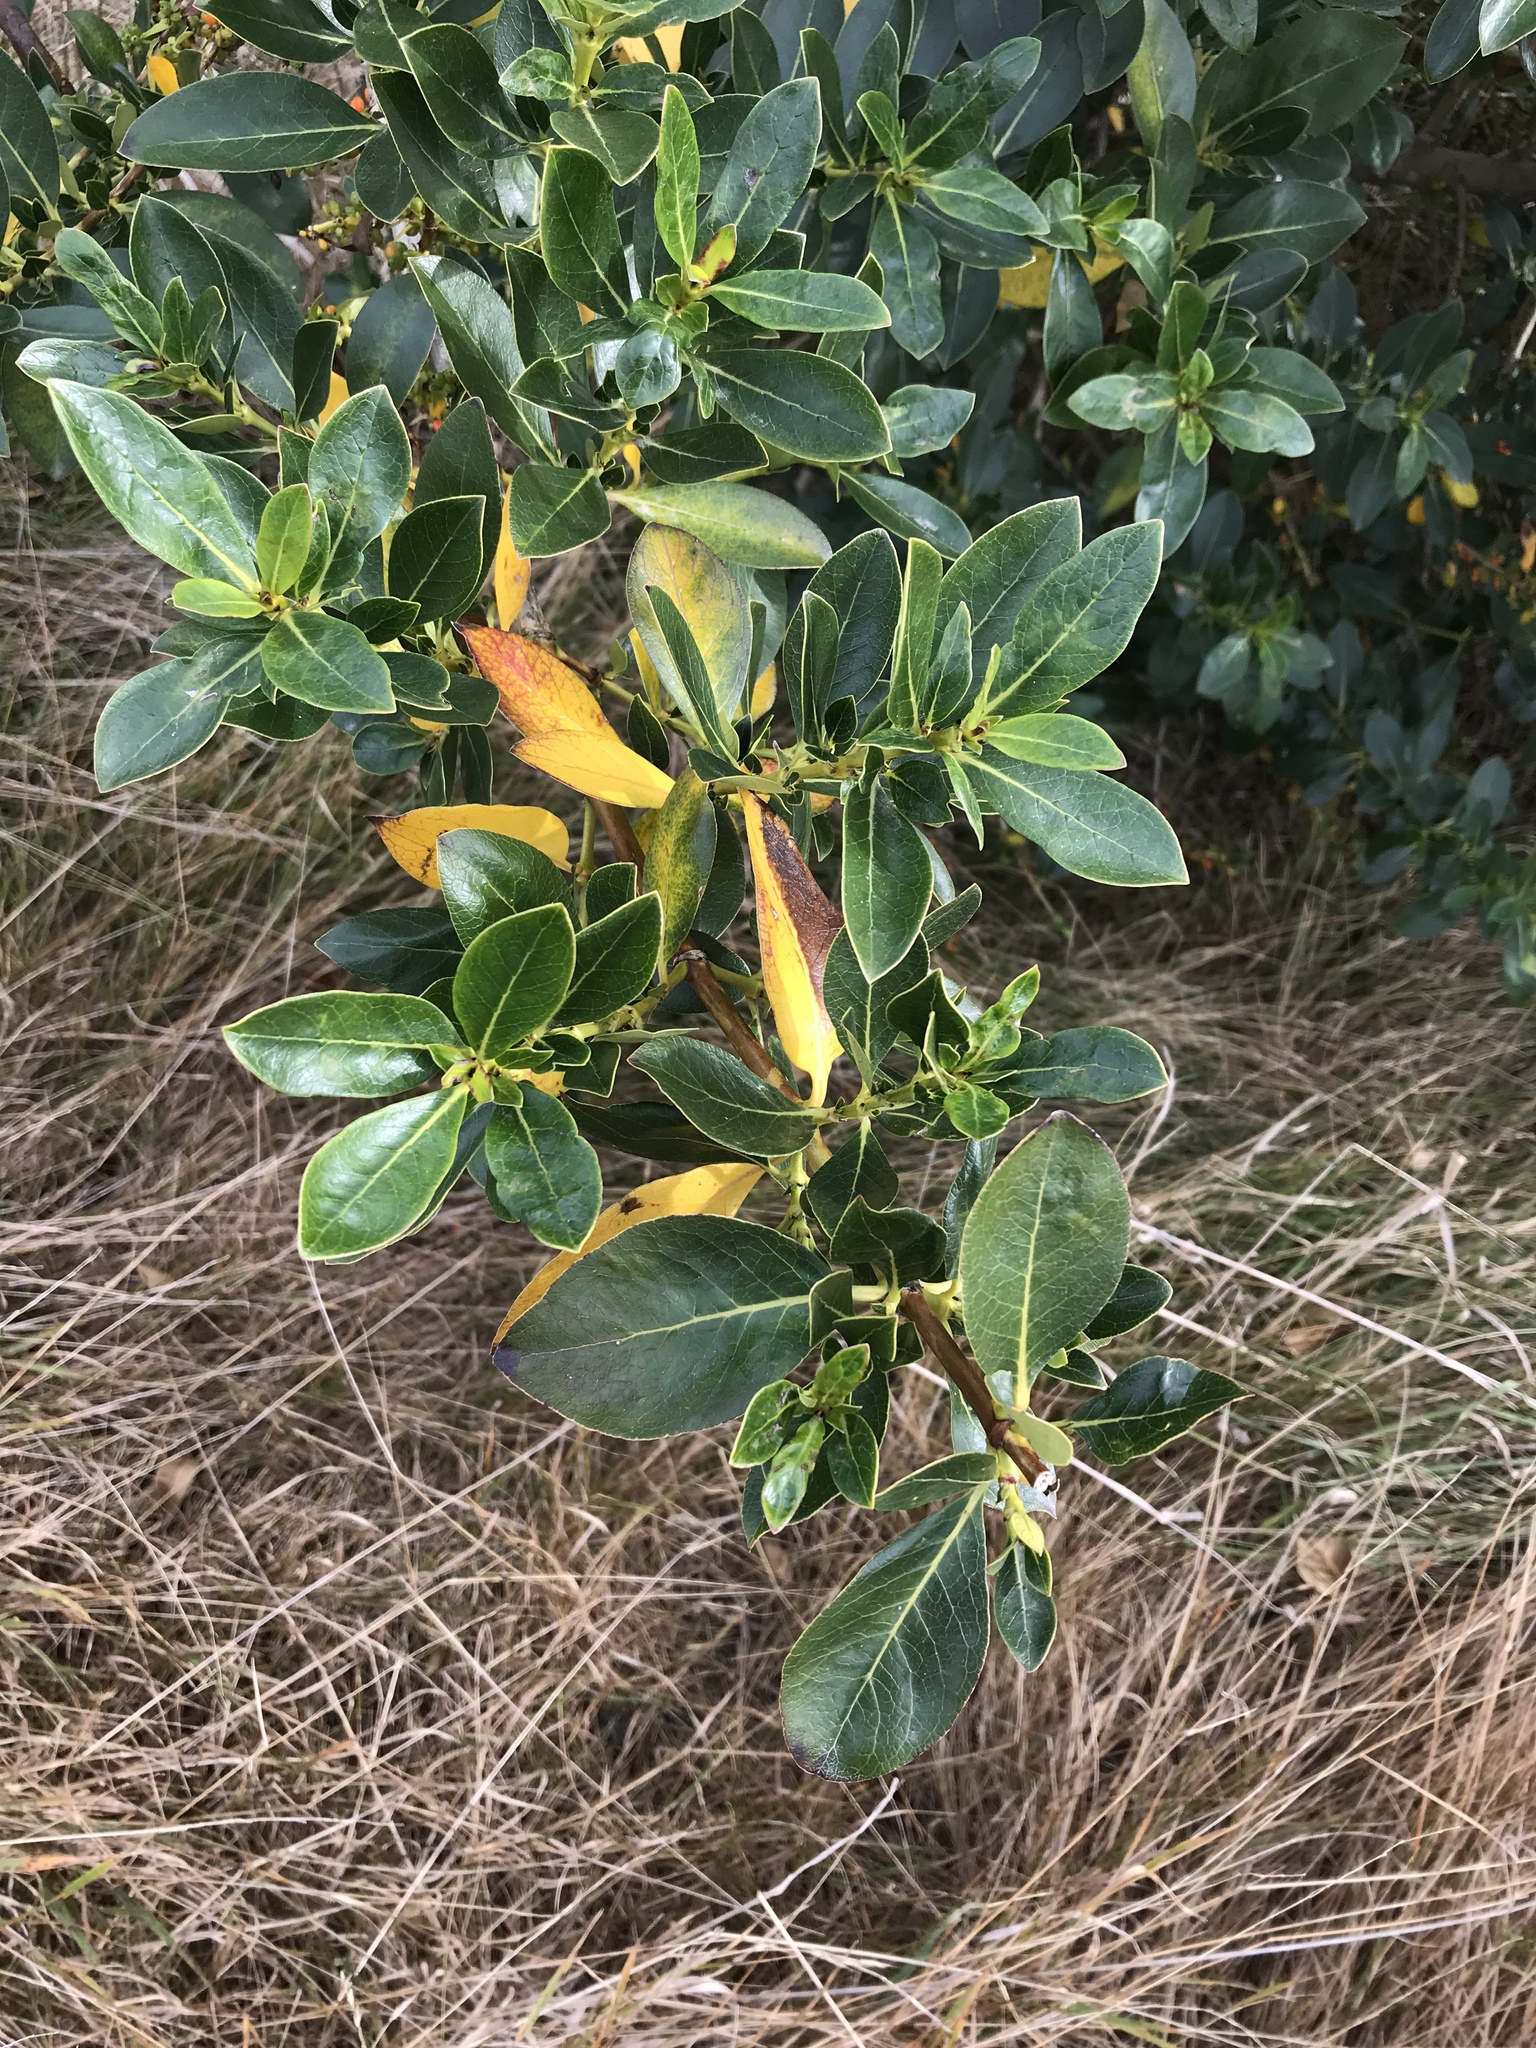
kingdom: Plantae
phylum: Tracheophyta
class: Magnoliopsida
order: Gentianales
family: Rubiaceae
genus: Coprosma
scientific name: Coprosma robusta
